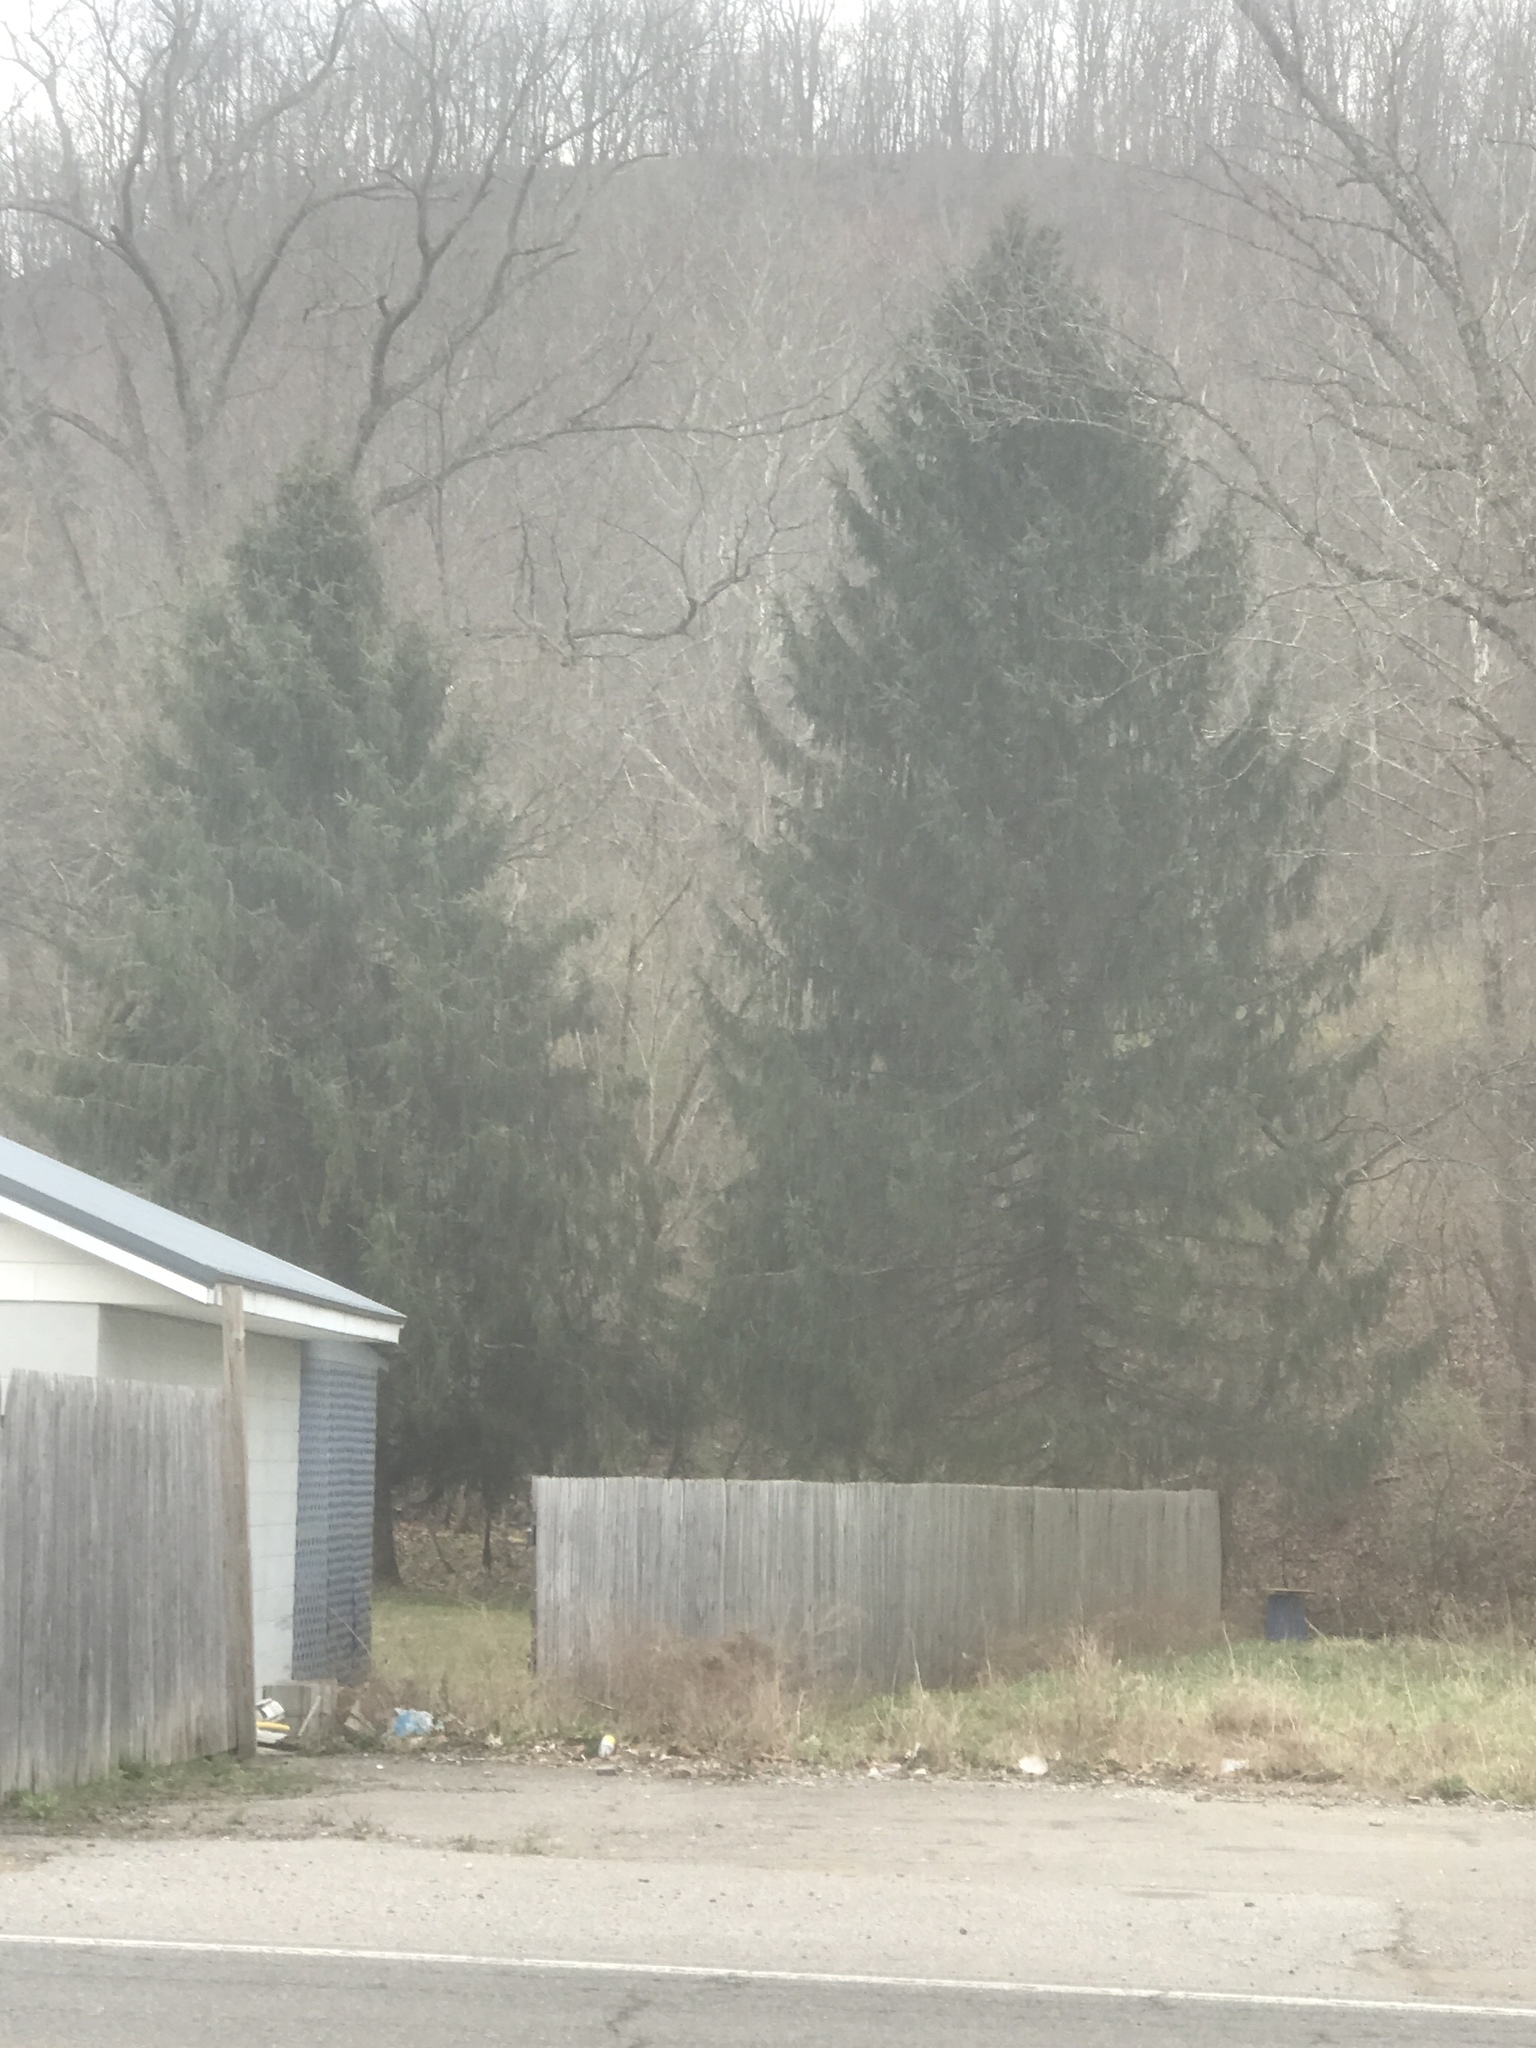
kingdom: Plantae
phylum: Tracheophyta
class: Pinopsida
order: Pinales
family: Pinaceae
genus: Picea
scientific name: Picea abies
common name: Norway spruce
